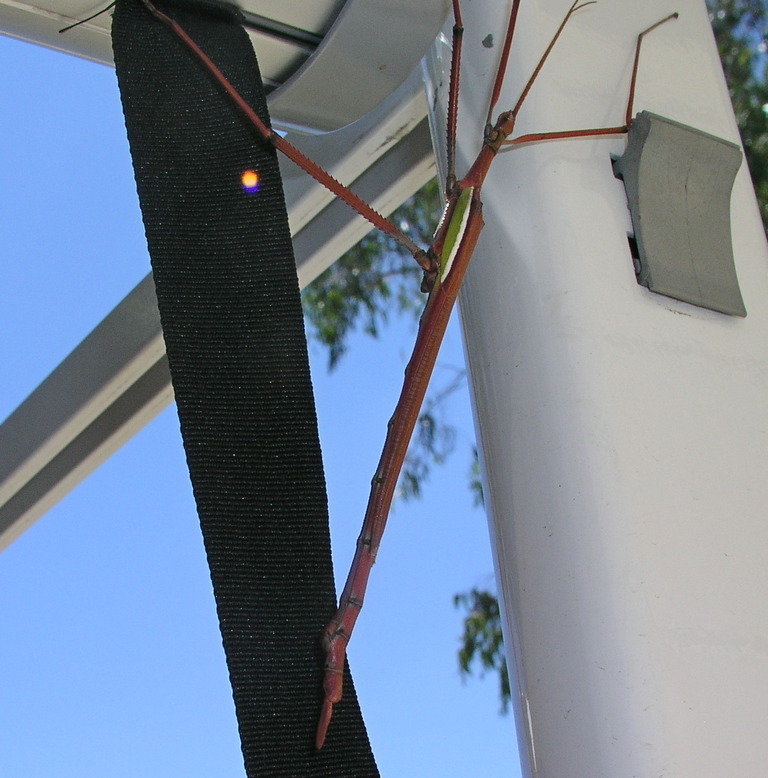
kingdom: Animalia
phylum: Arthropoda
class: Insecta
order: Phasmida
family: Phasmatidae
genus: Tropidoderus
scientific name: Tropidoderus childrenii
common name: Children's stick insect
